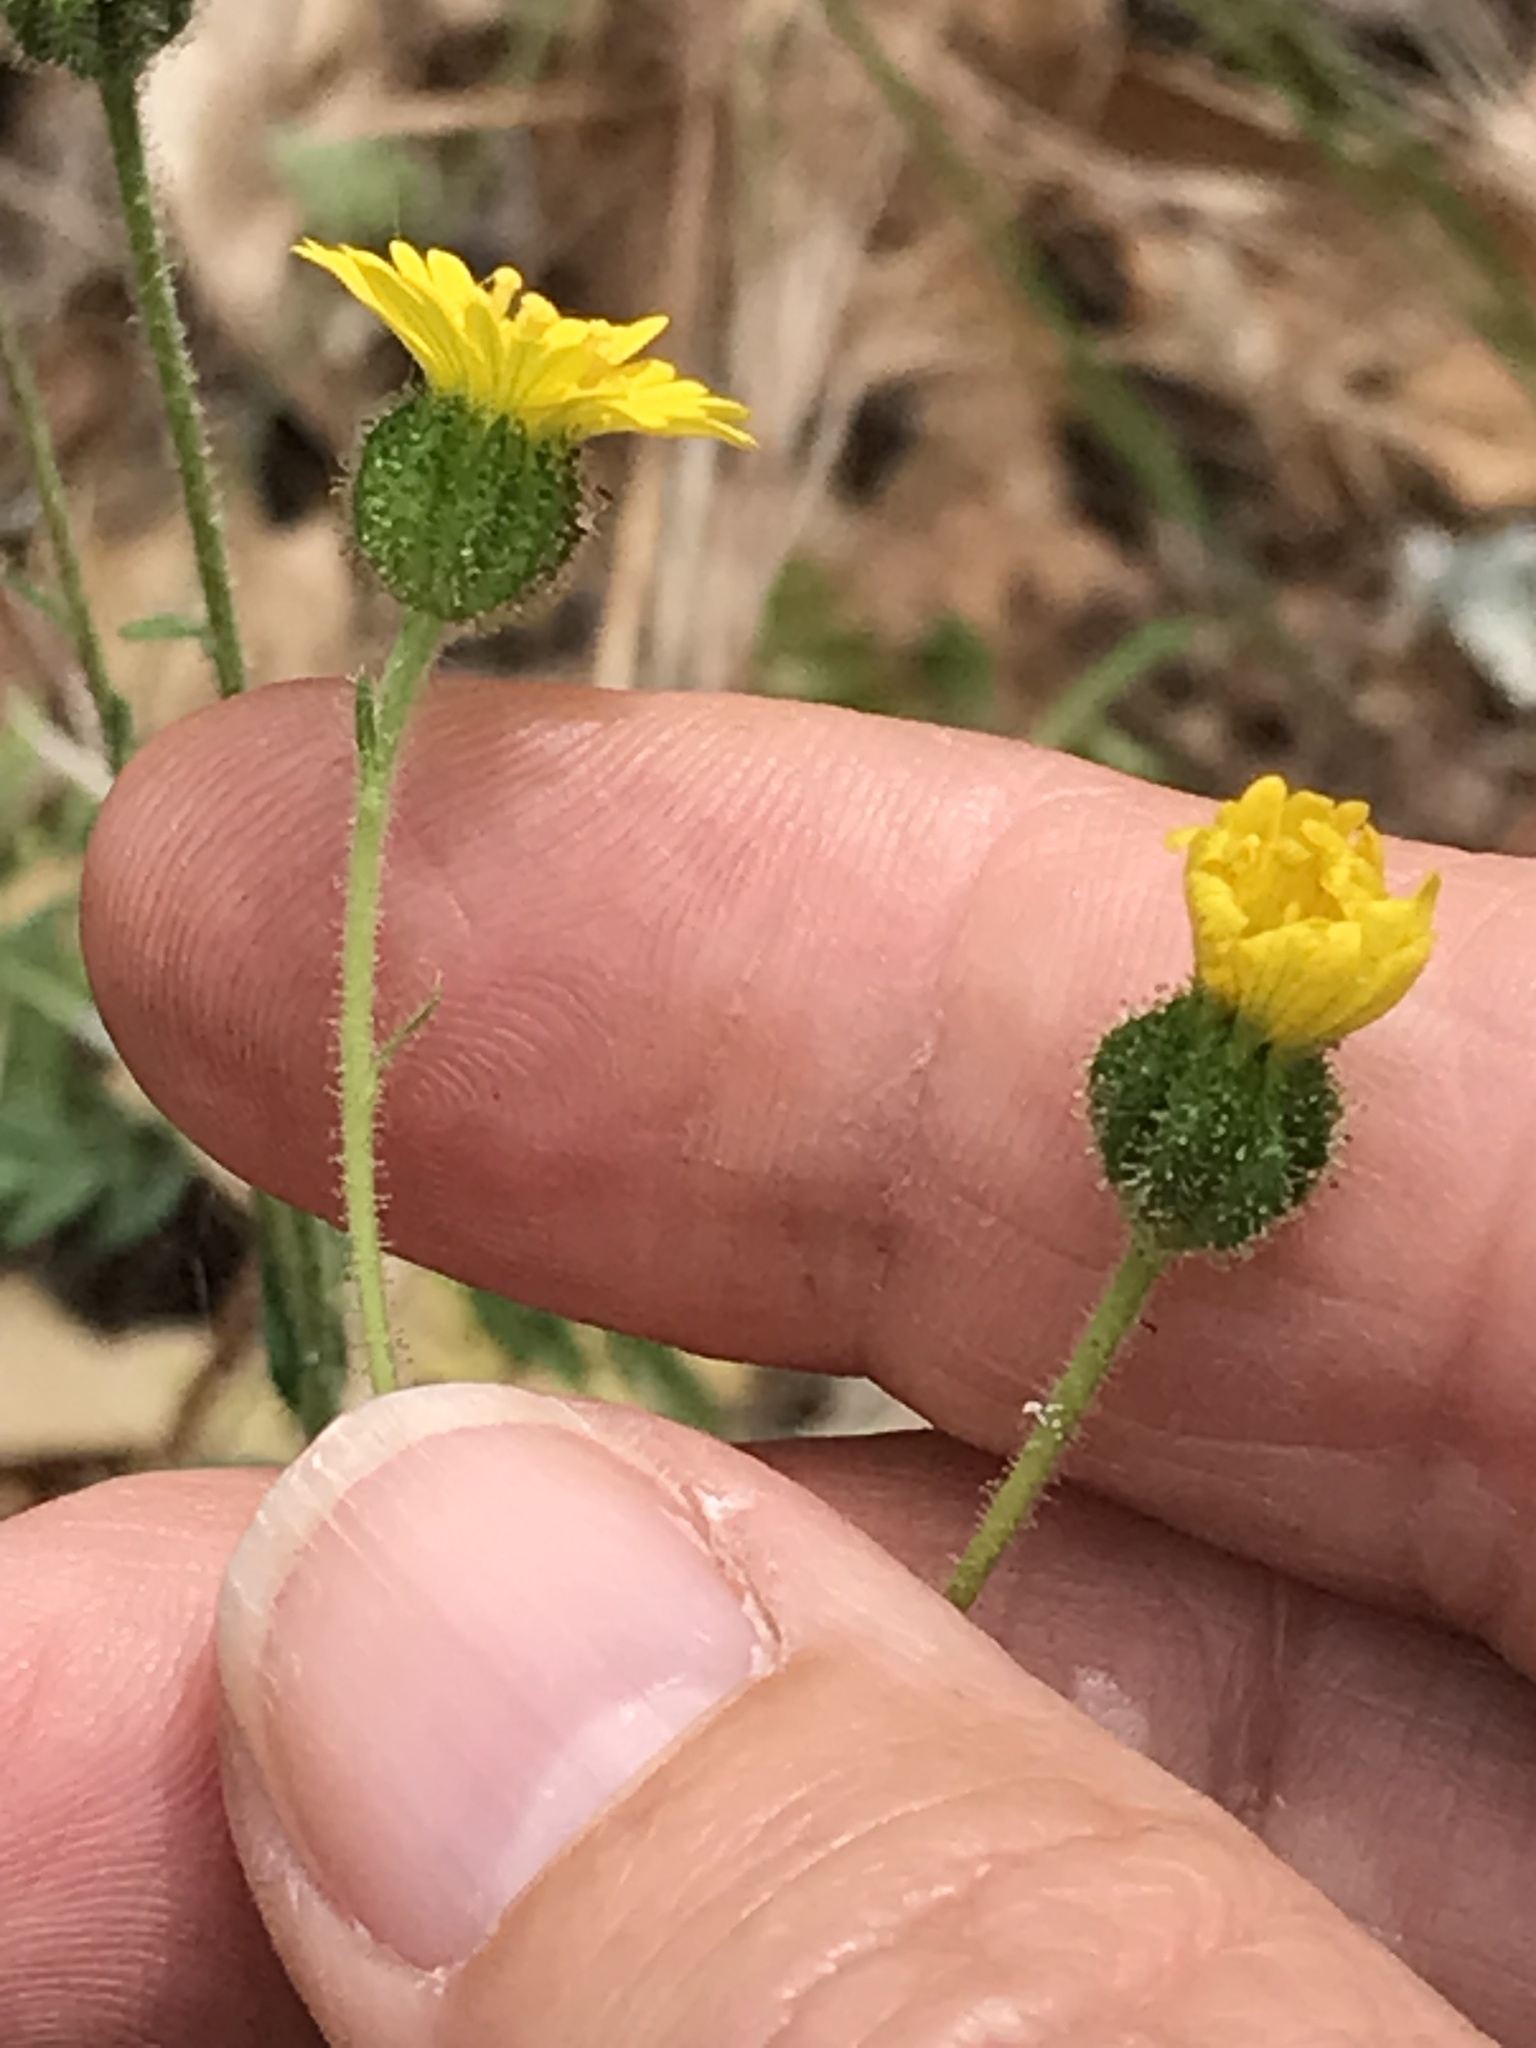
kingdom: Plantae
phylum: Tracheophyta
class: Magnoliopsida
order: Asterales
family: Asteraceae
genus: Anisocarpus
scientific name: Anisocarpus madioides
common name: Woodland madia
